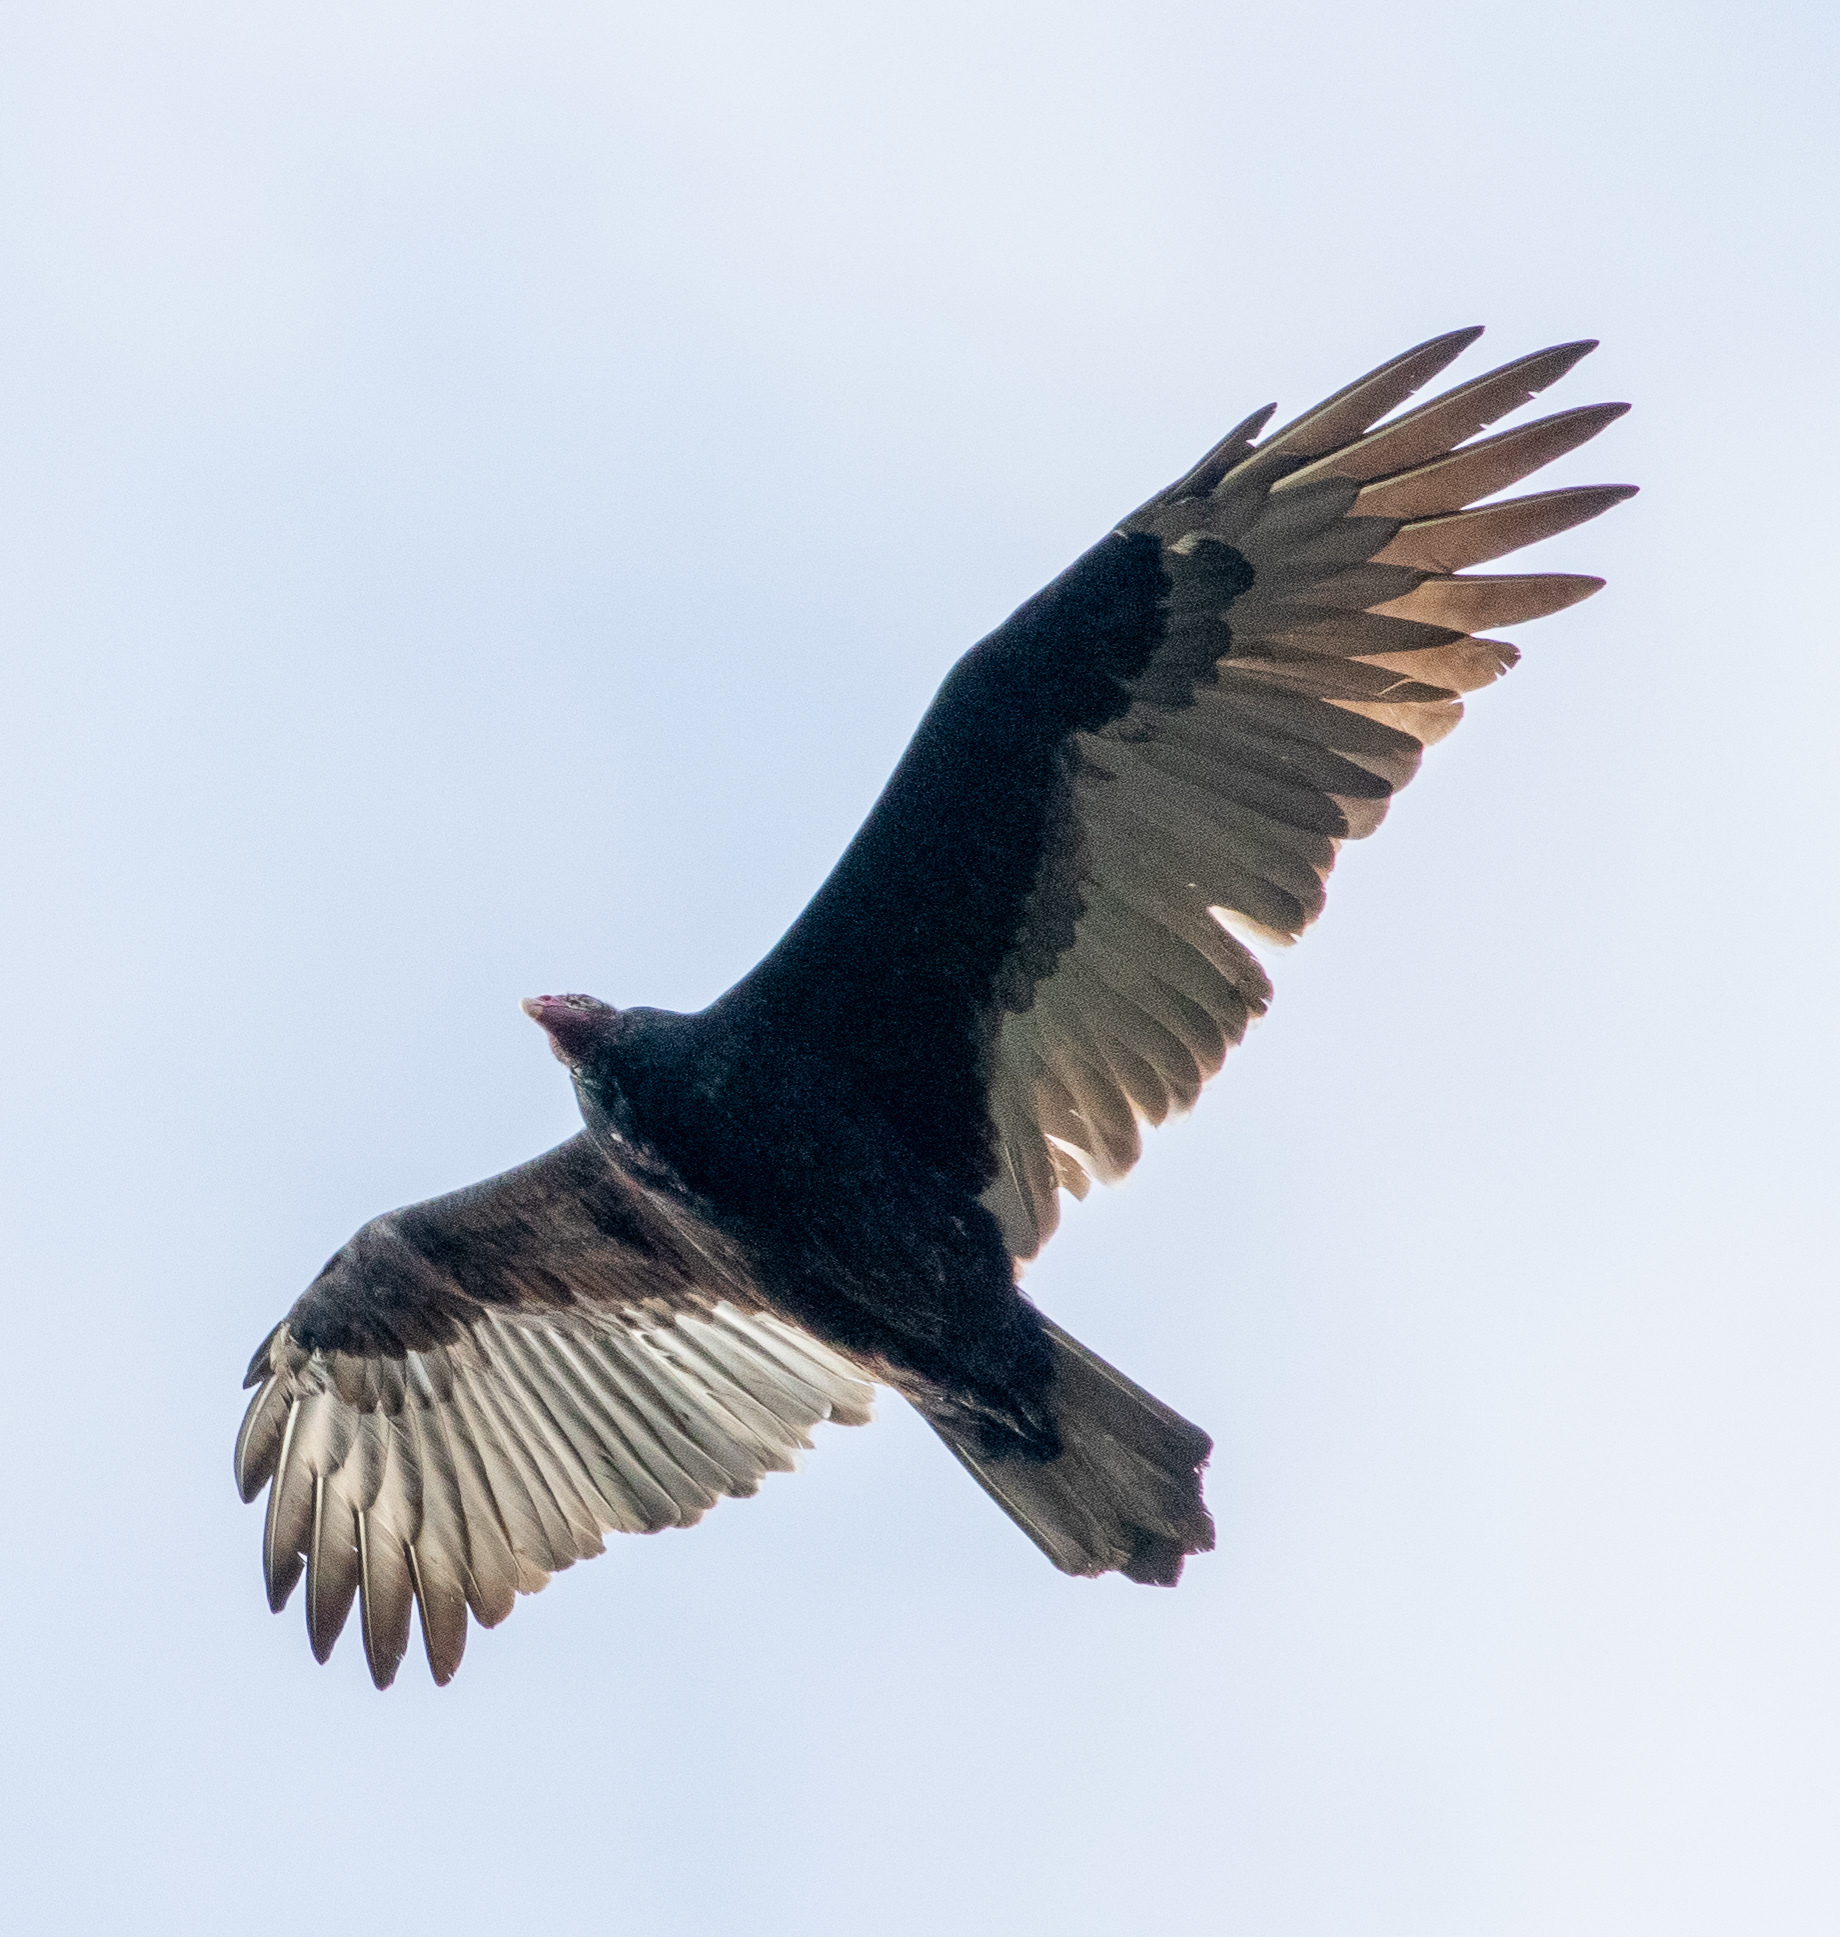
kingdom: Animalia
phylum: Chordata
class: Aves
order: Accipitriformes
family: Cathartidae
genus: Cathartes
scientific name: Cathartes aura
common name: Turkey vulture
